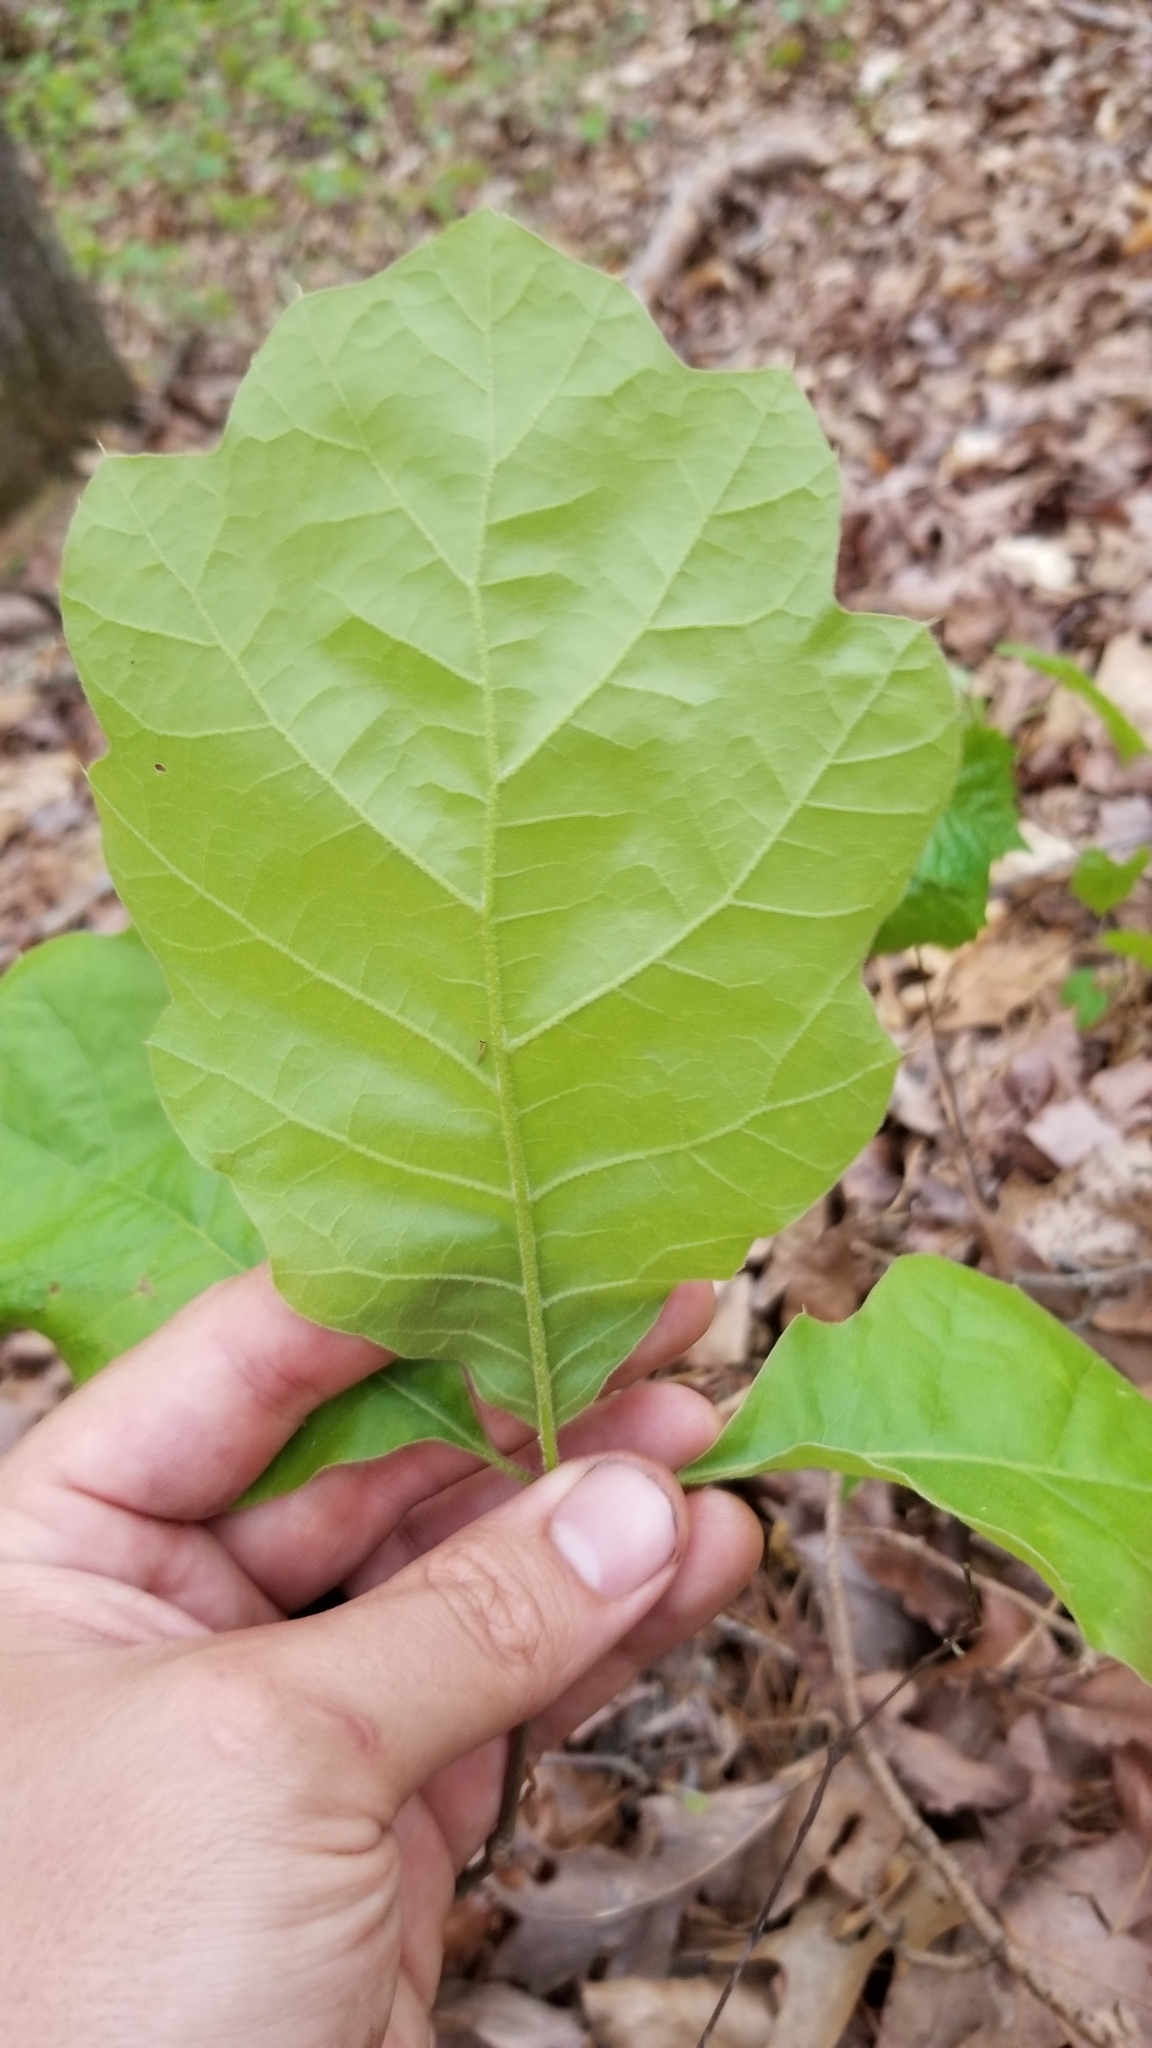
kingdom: Plantae
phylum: Tracheophyta
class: Magnoliopsida
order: Fagales
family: Fagaceae
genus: Quercus
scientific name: Quercus rubra
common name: Red oak
